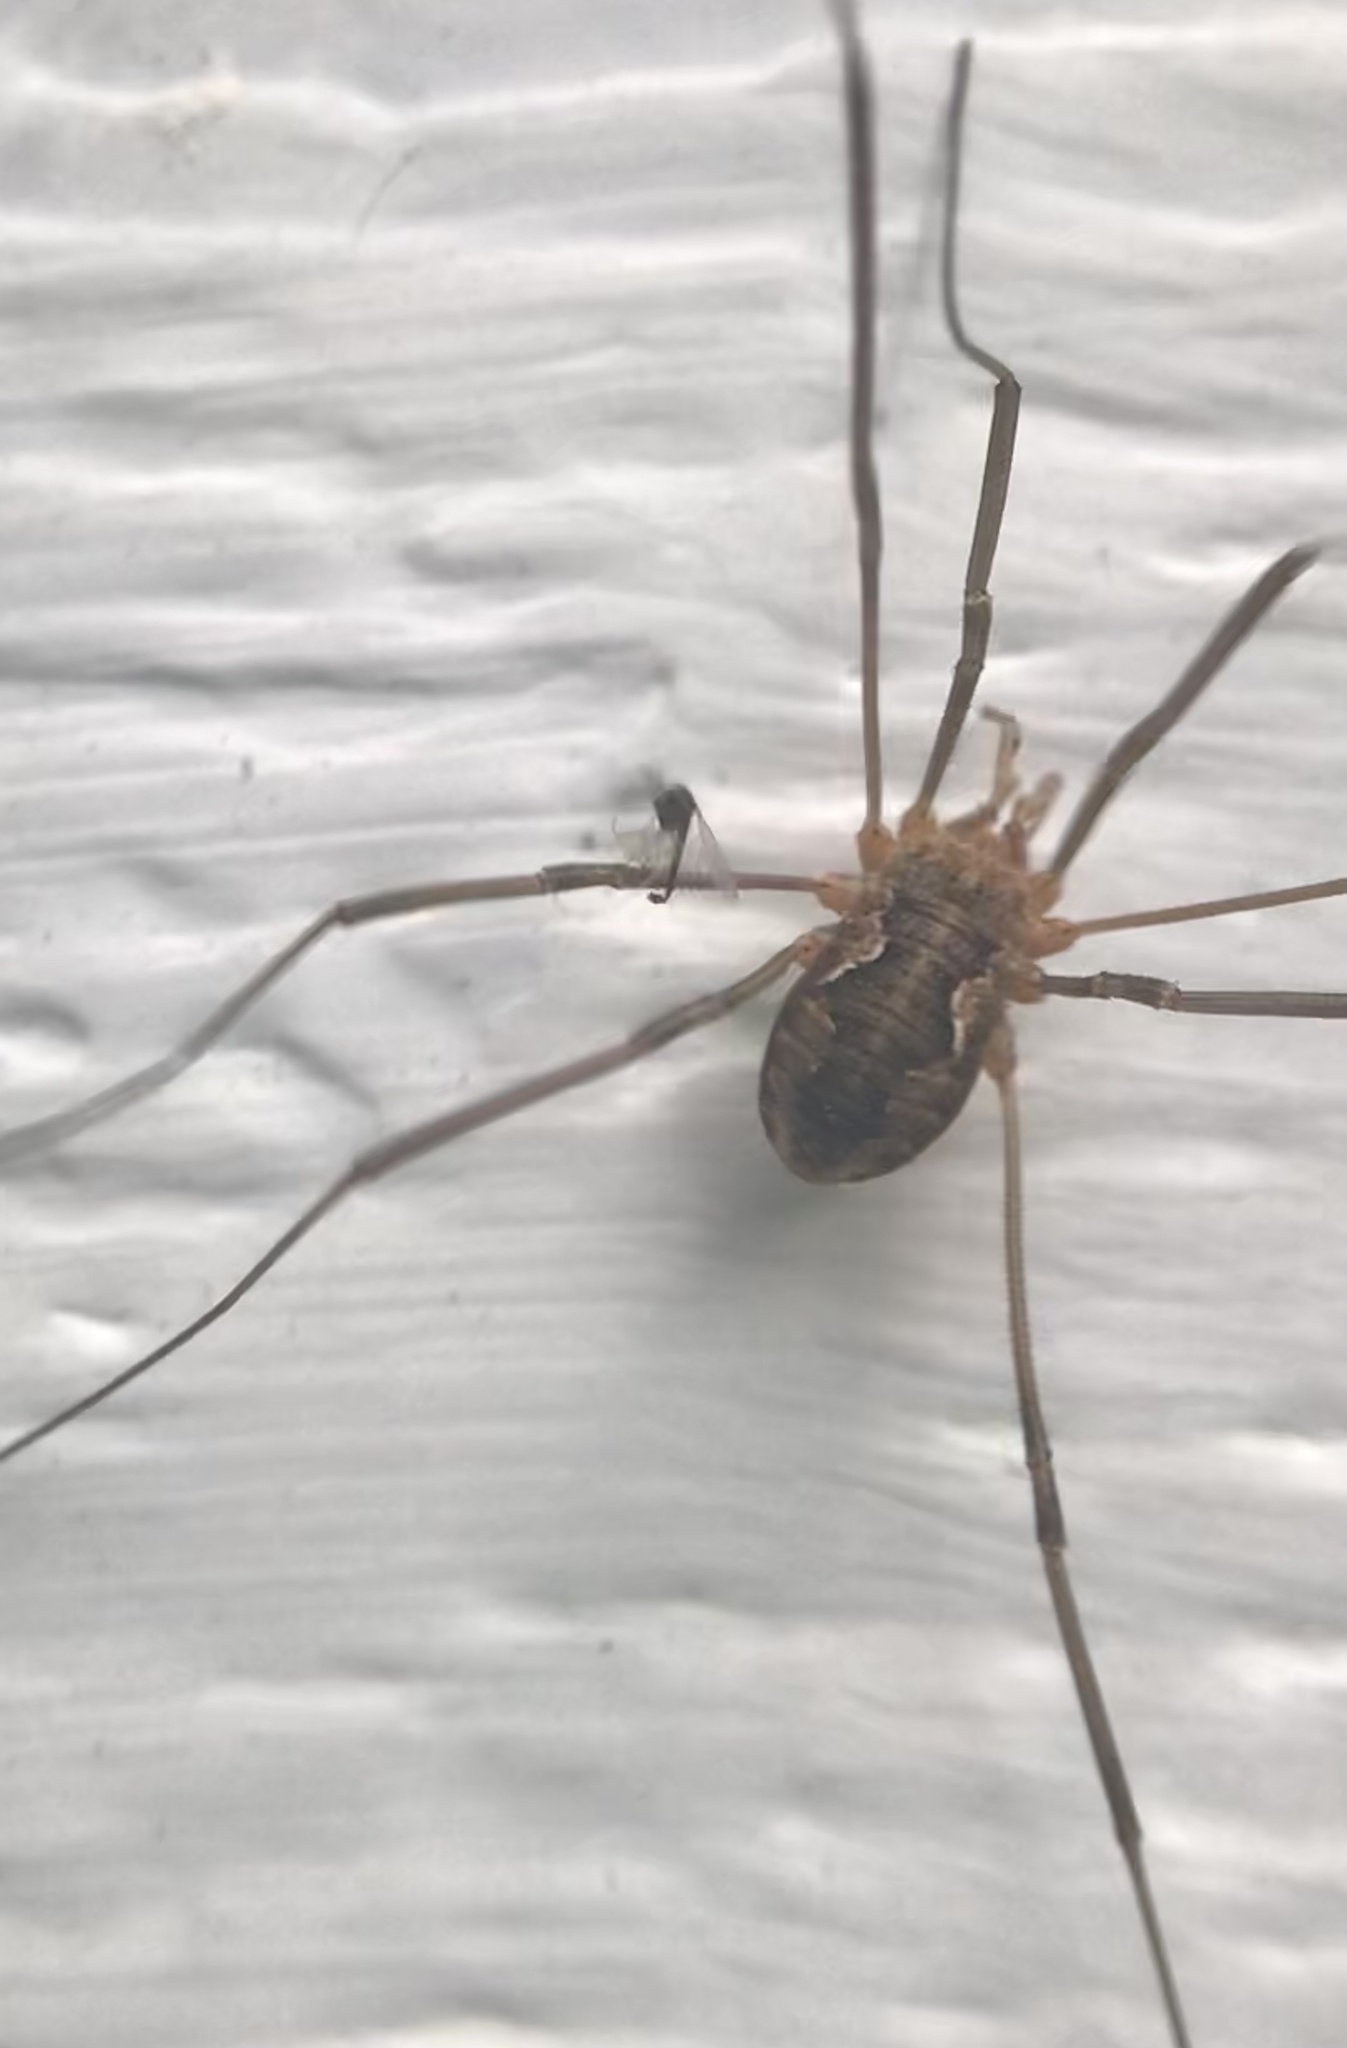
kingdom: Animalia
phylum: Arthropoda
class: Arachnida
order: Opiliones
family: Phalangiidae
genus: Phalangium
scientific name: Phalangium opilio
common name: Daddy longleg
